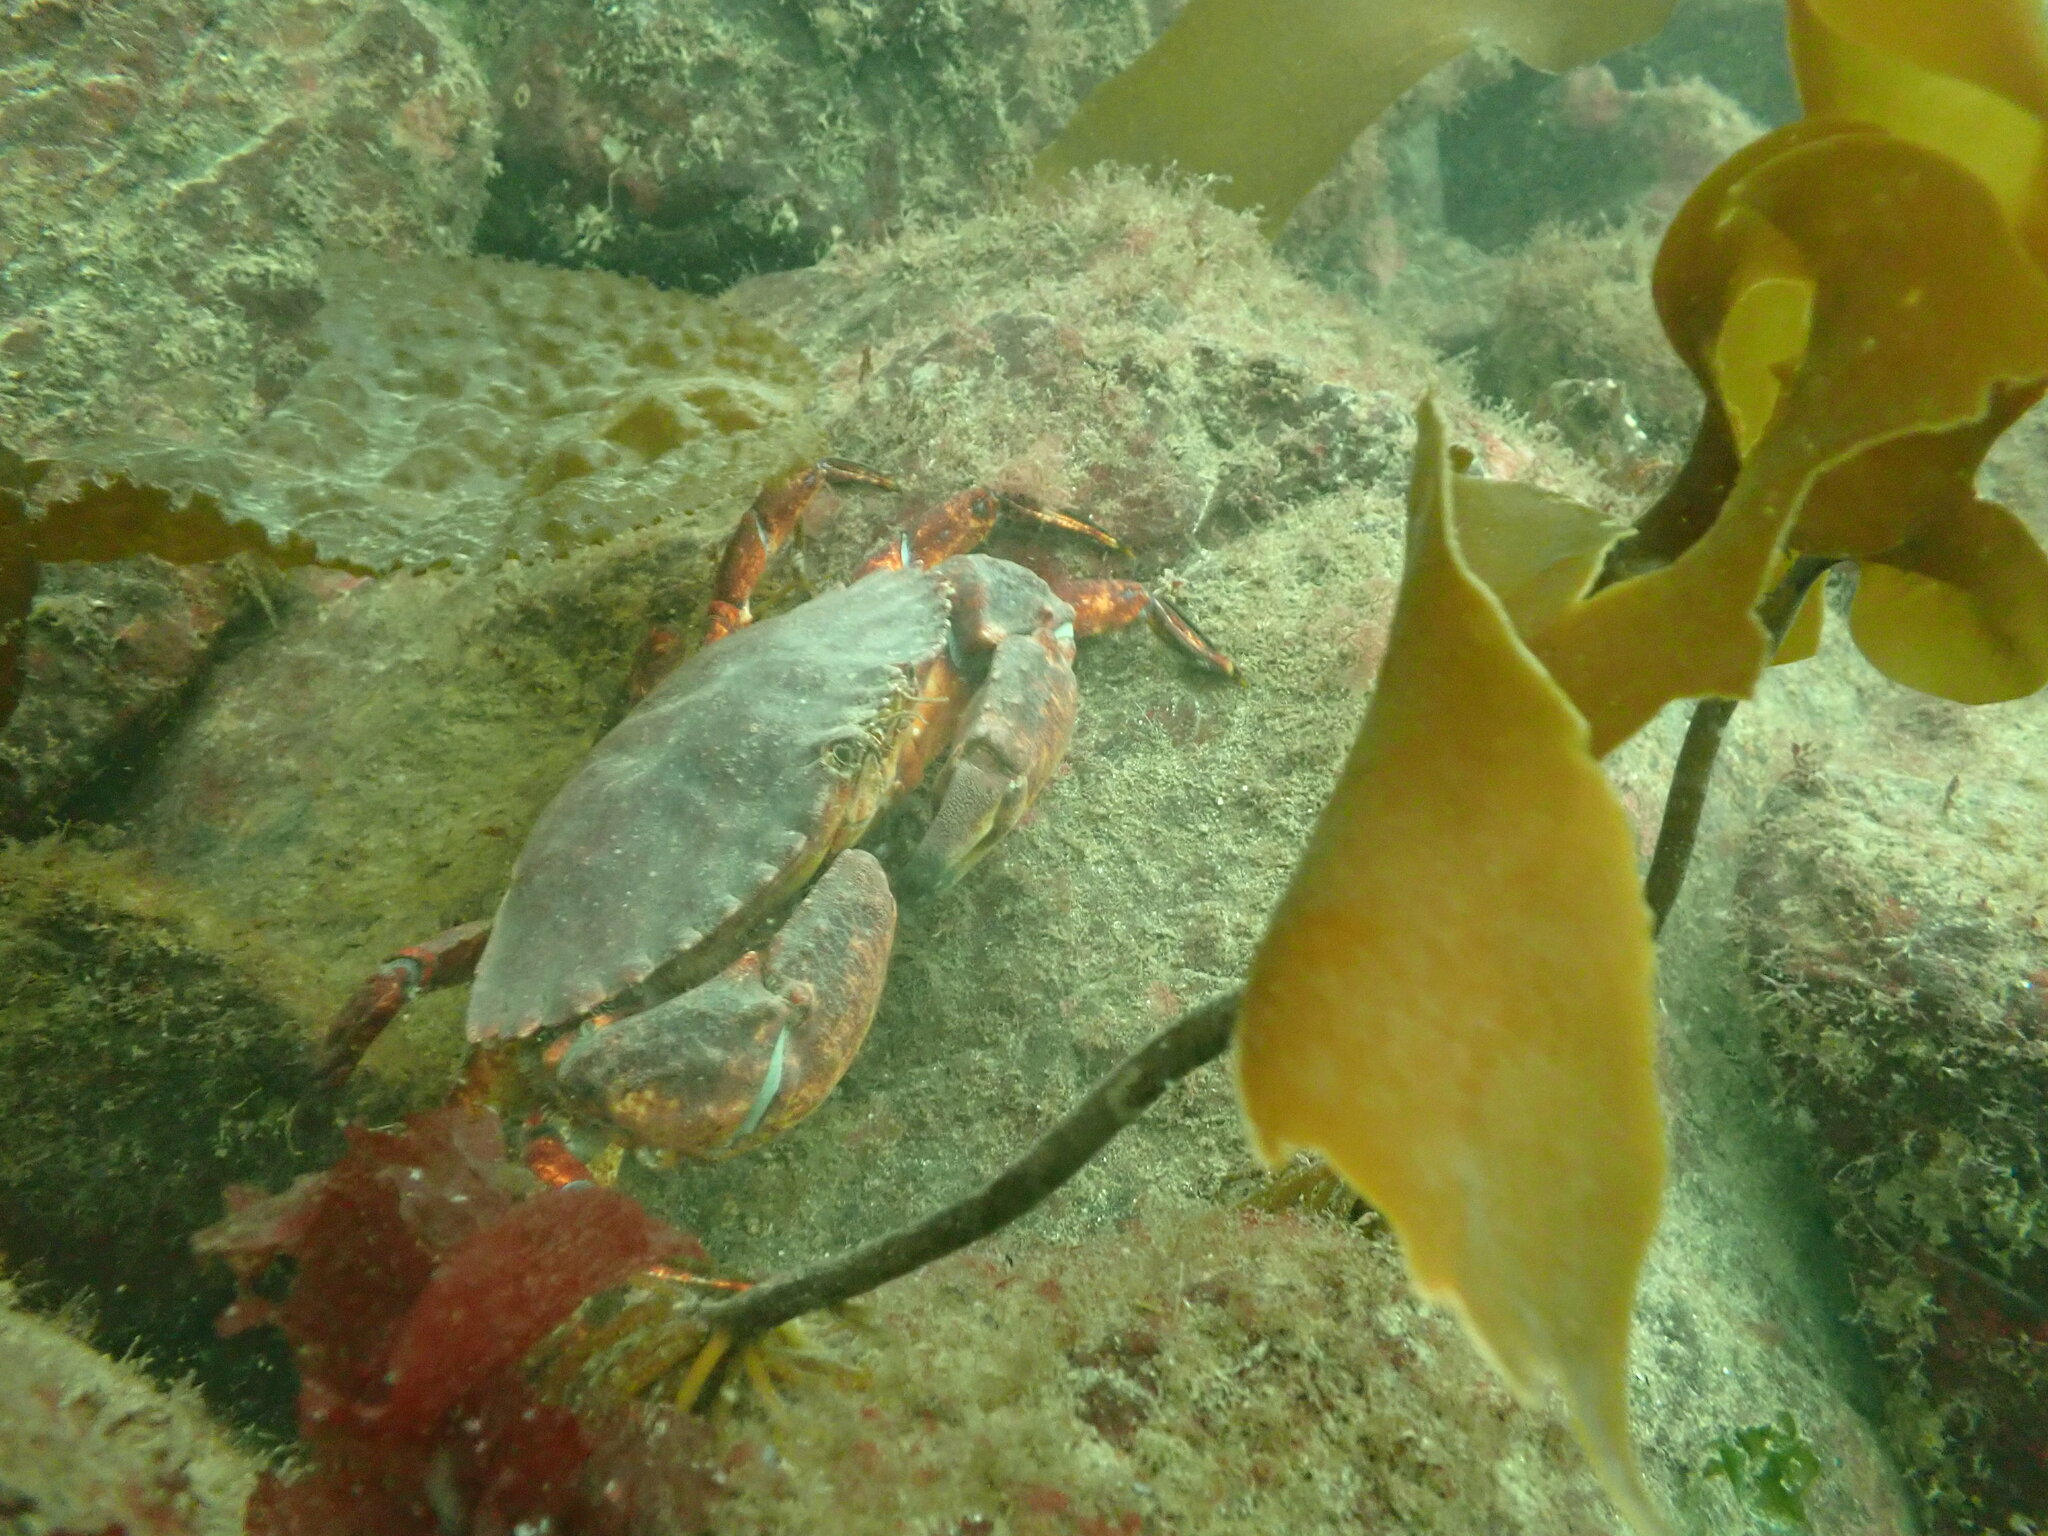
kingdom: Animalia
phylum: Arthropoda
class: Malacostraca
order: Decapoda
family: Cancridae
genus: Cancer
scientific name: Cancer productus
